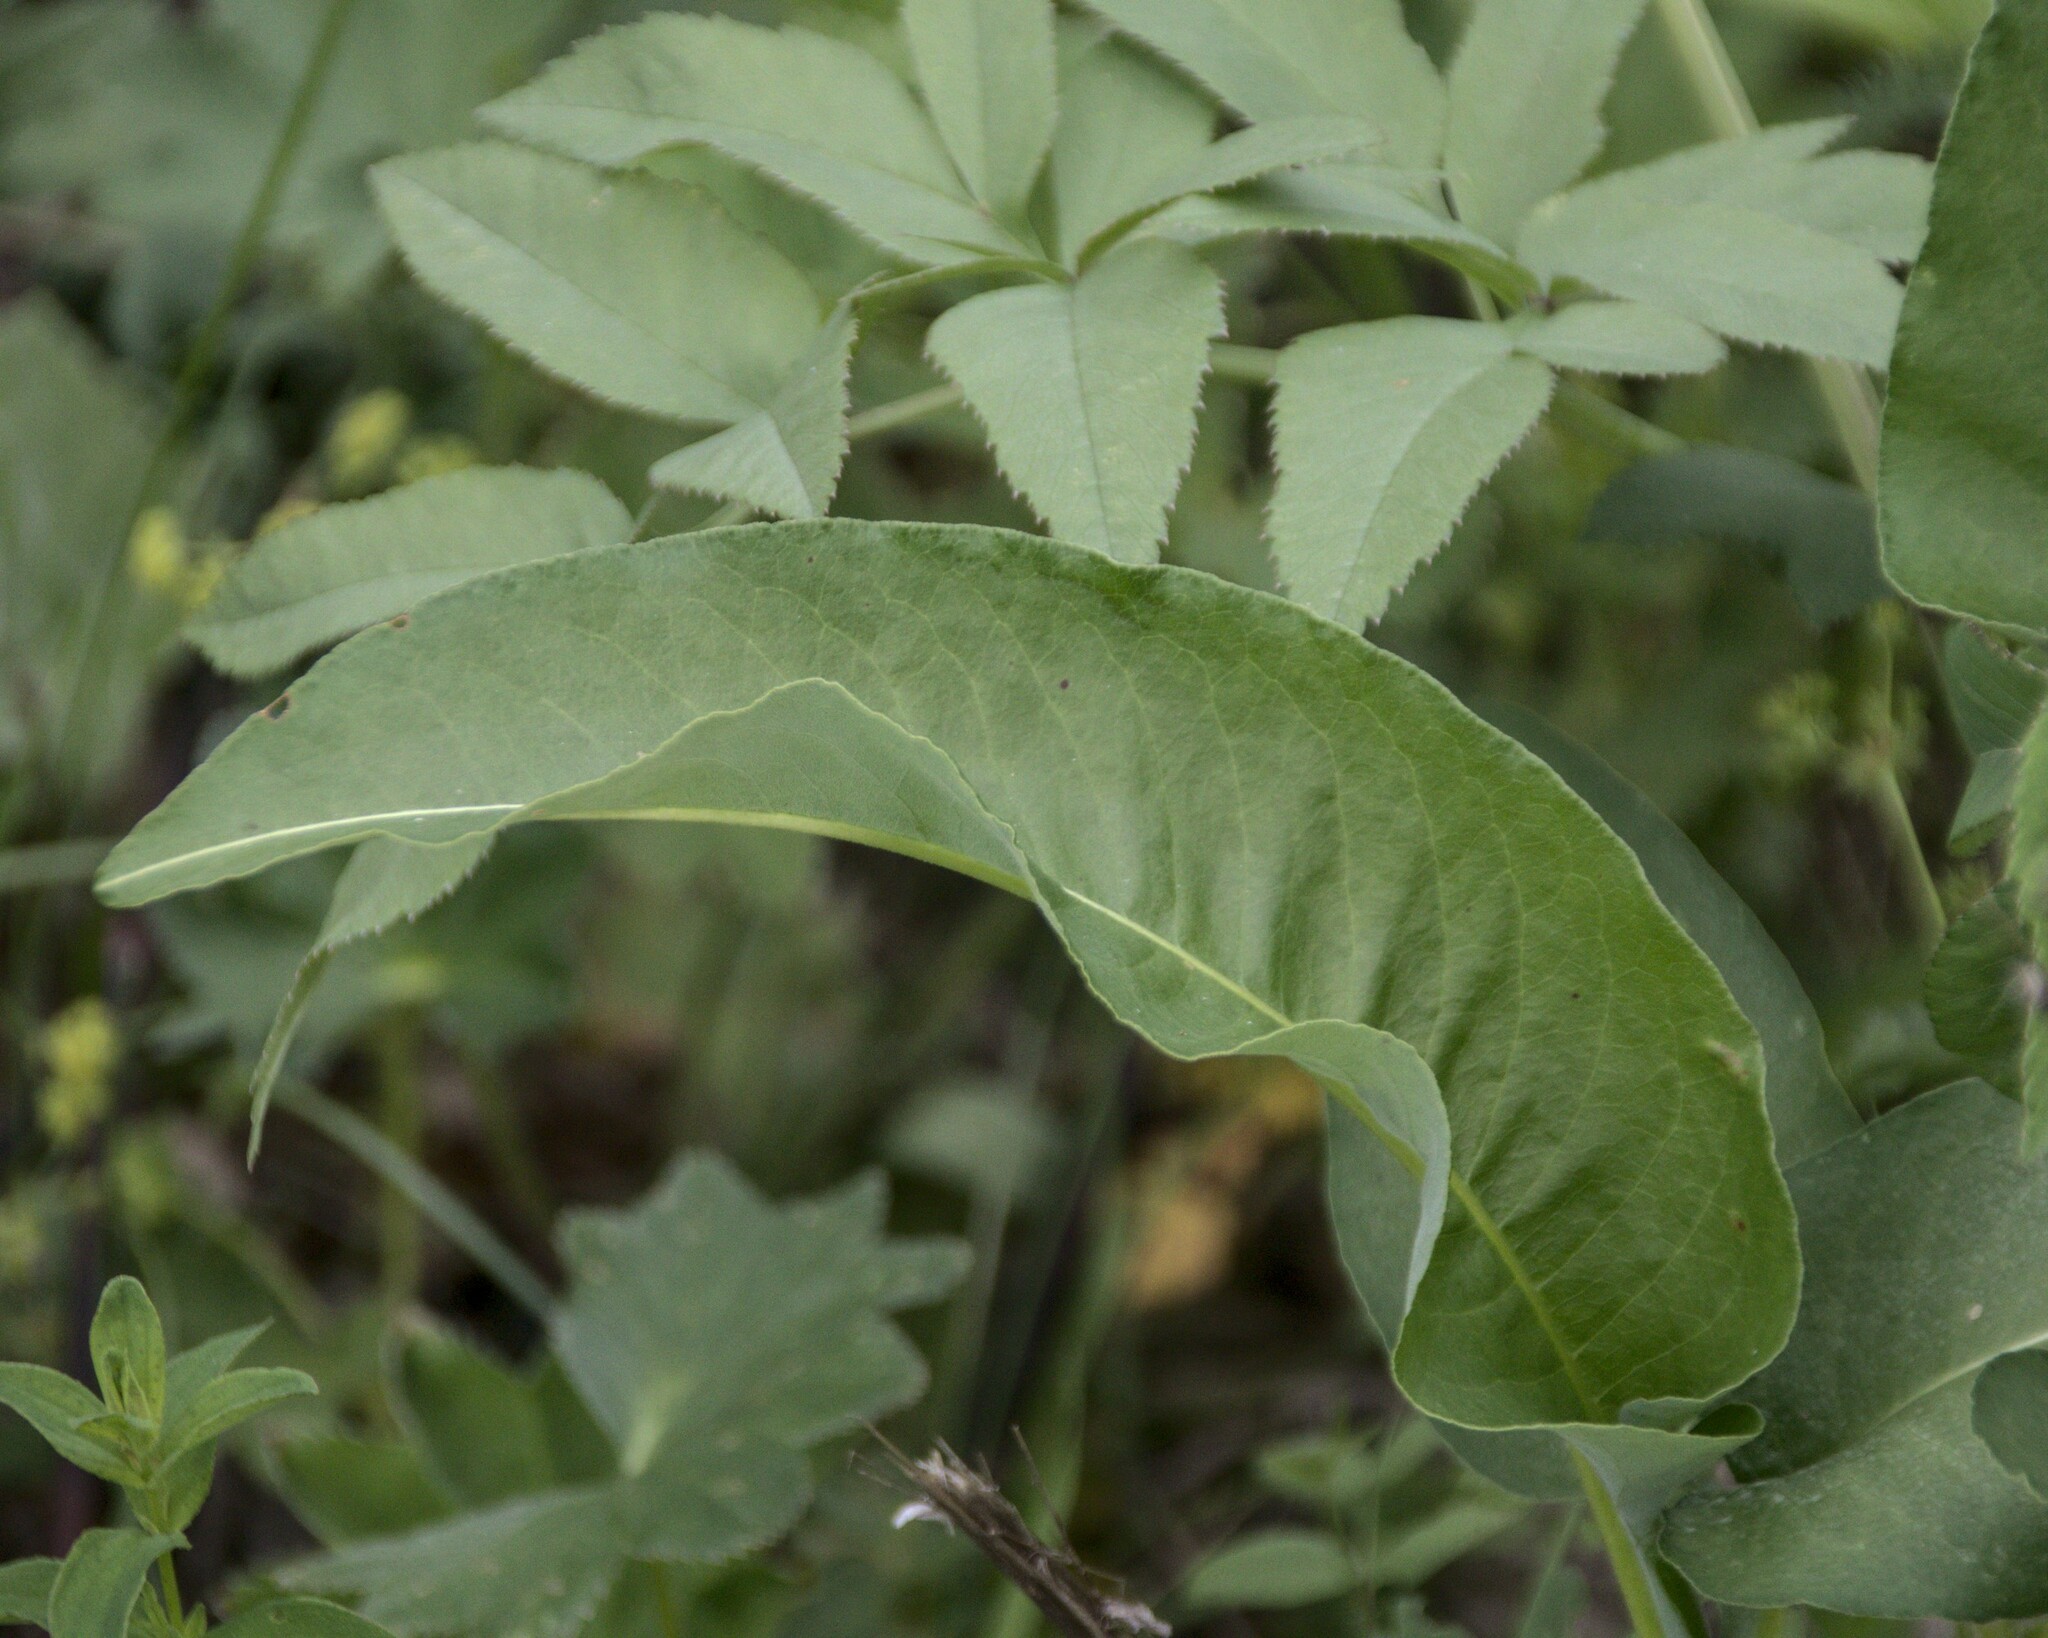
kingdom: Plantae
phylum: Tracheophyta
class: Magnoliopsida
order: Caryophyllales
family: Polygonaceae
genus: Bistorta
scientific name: Bistorta officinalis
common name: Common bistort
